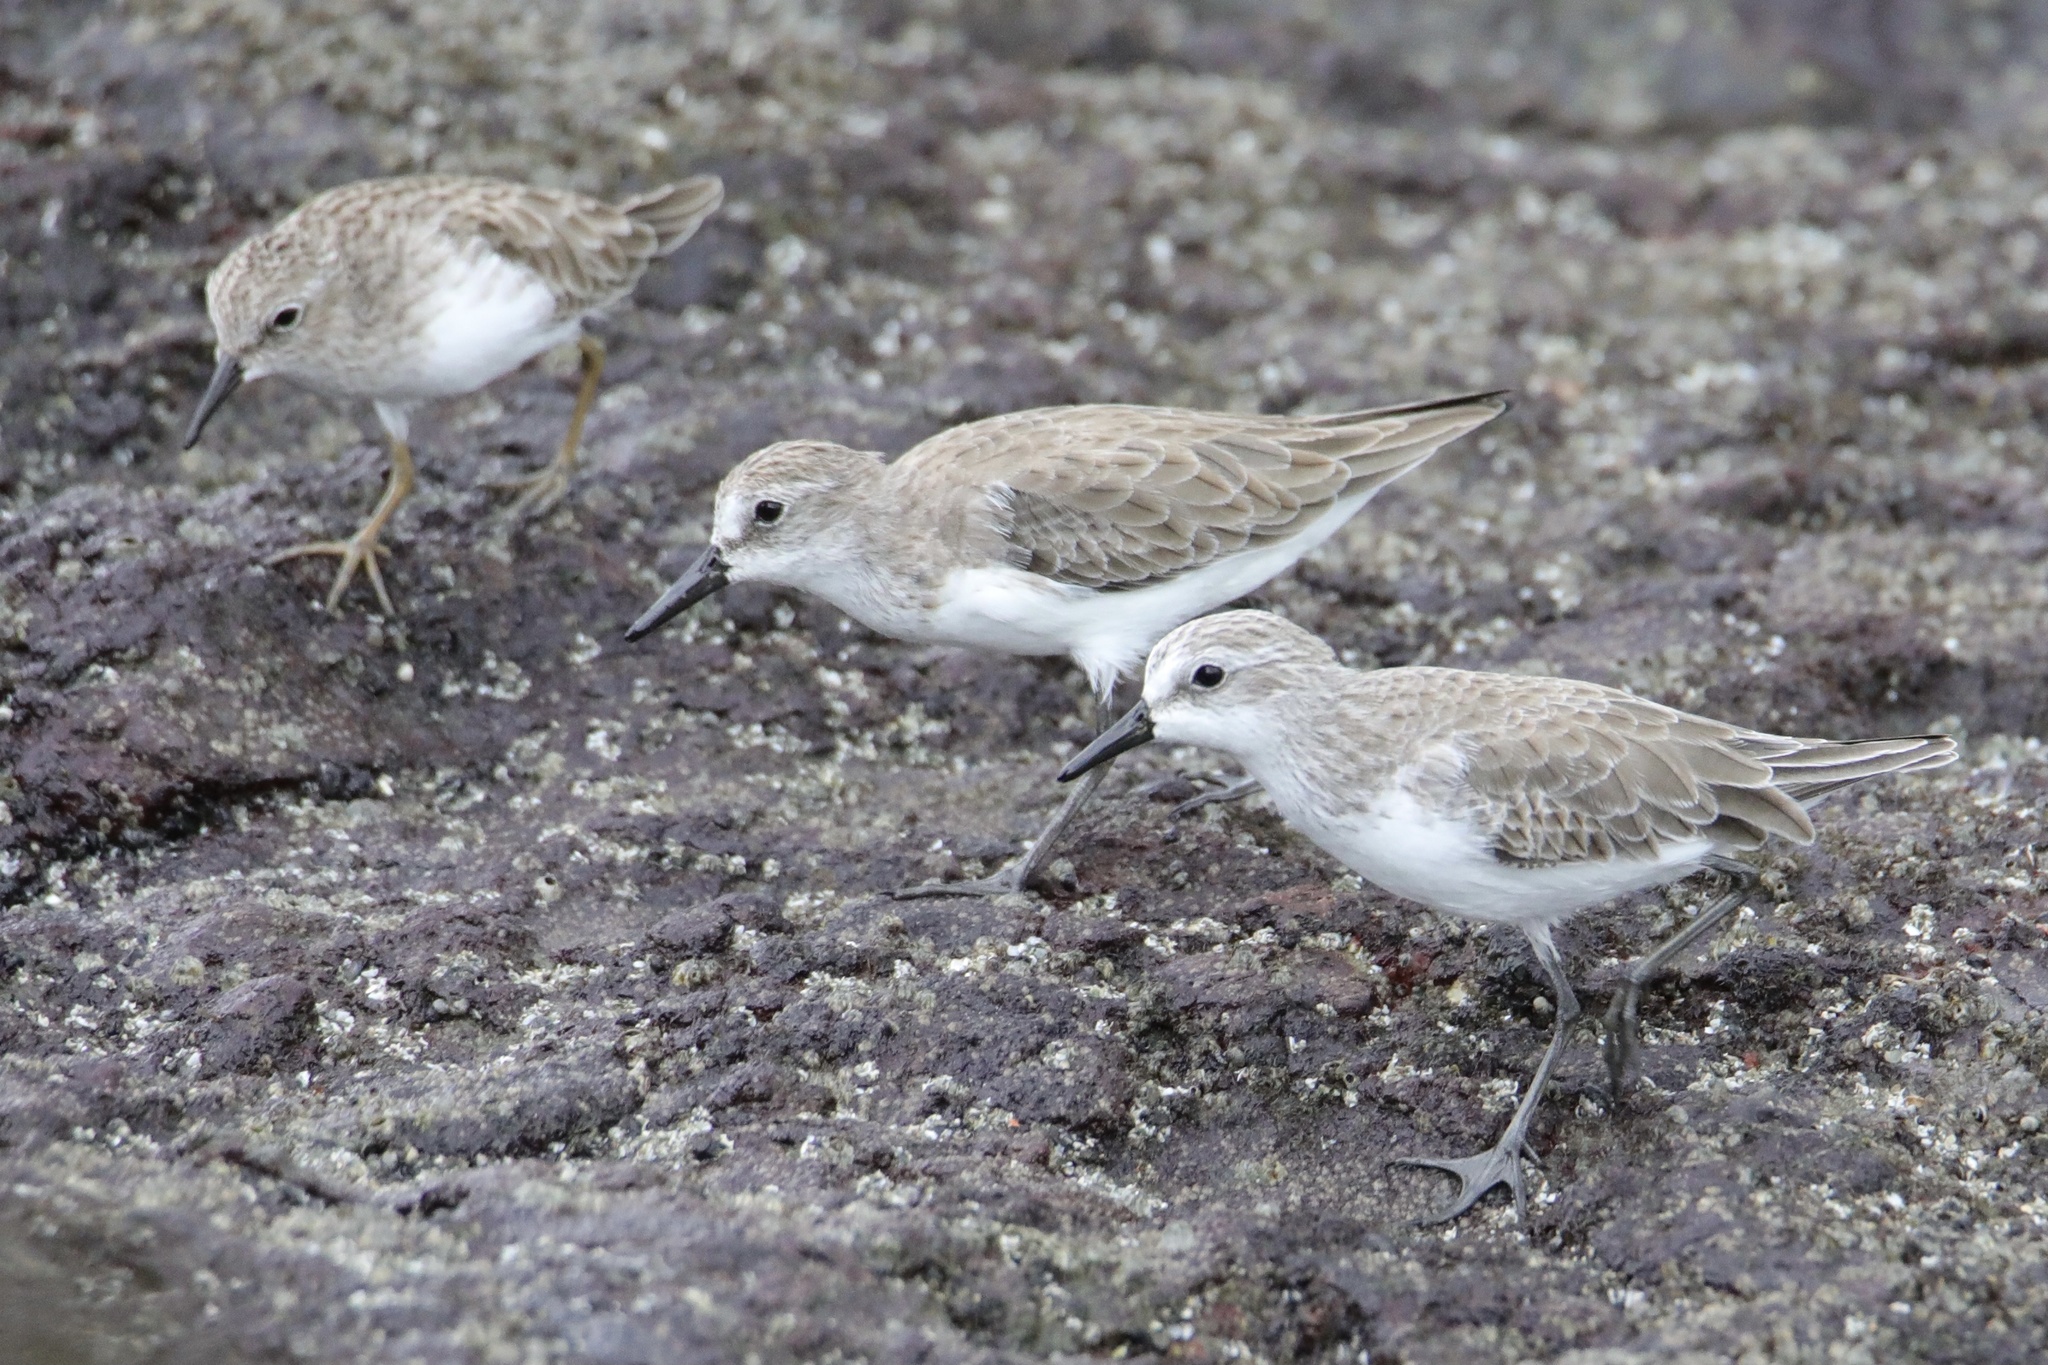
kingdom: Animalia
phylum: Chordata
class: Aves
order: Charadriiformes
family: Scolopacidae
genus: Calidris
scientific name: Calidris pusilla
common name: Semipalmated sandpiper
